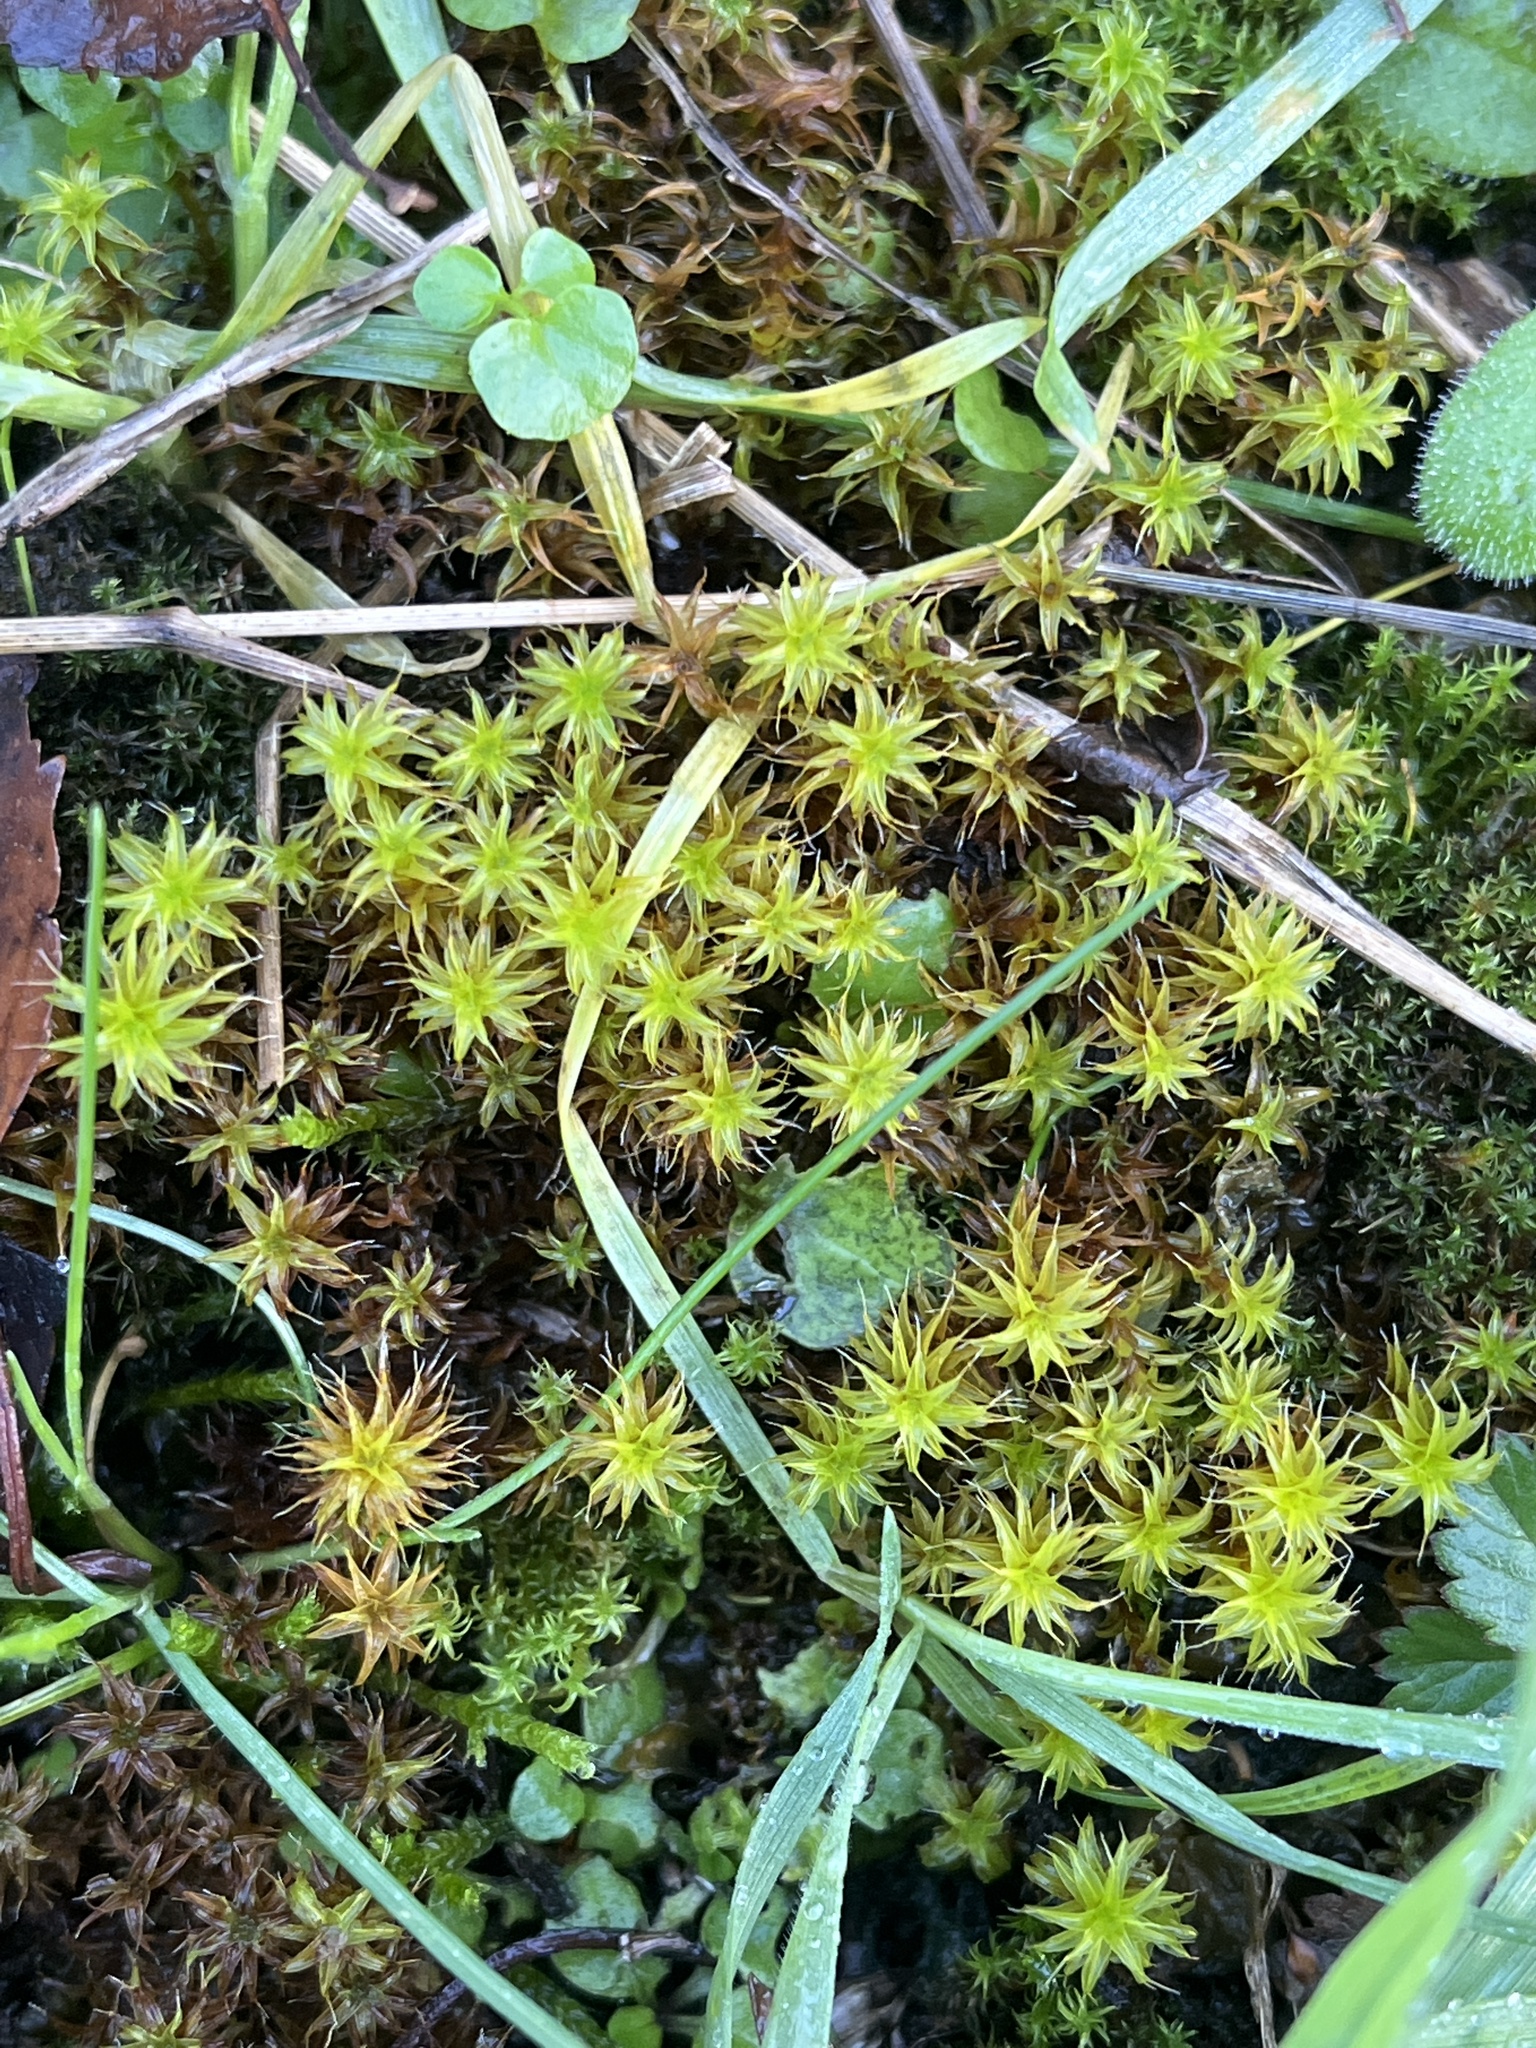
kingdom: Plantae
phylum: Bryophyta
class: Bryopsida
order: Pottiales
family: Pottiaceae
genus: Syntrichia
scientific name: Syntrichia ruralis
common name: Sidewalk screw moss
